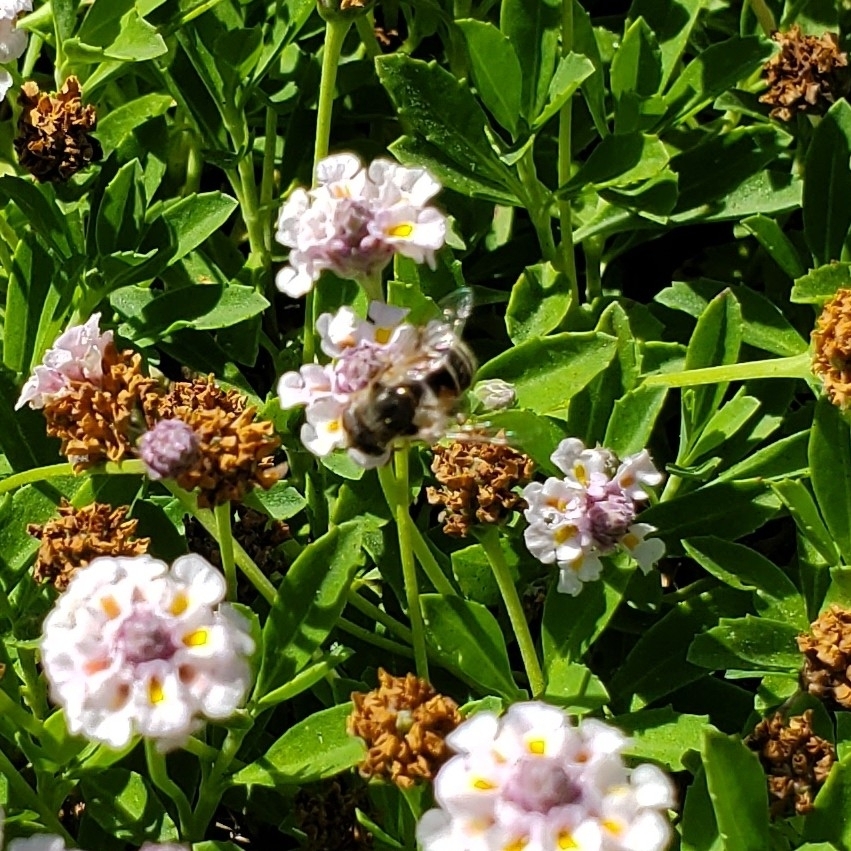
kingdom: Animalia
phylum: Arthropoda
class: Insecta
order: Diptera
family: Syrphidae
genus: Eristalis
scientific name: Eristalis arbustorum
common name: Hover fly
